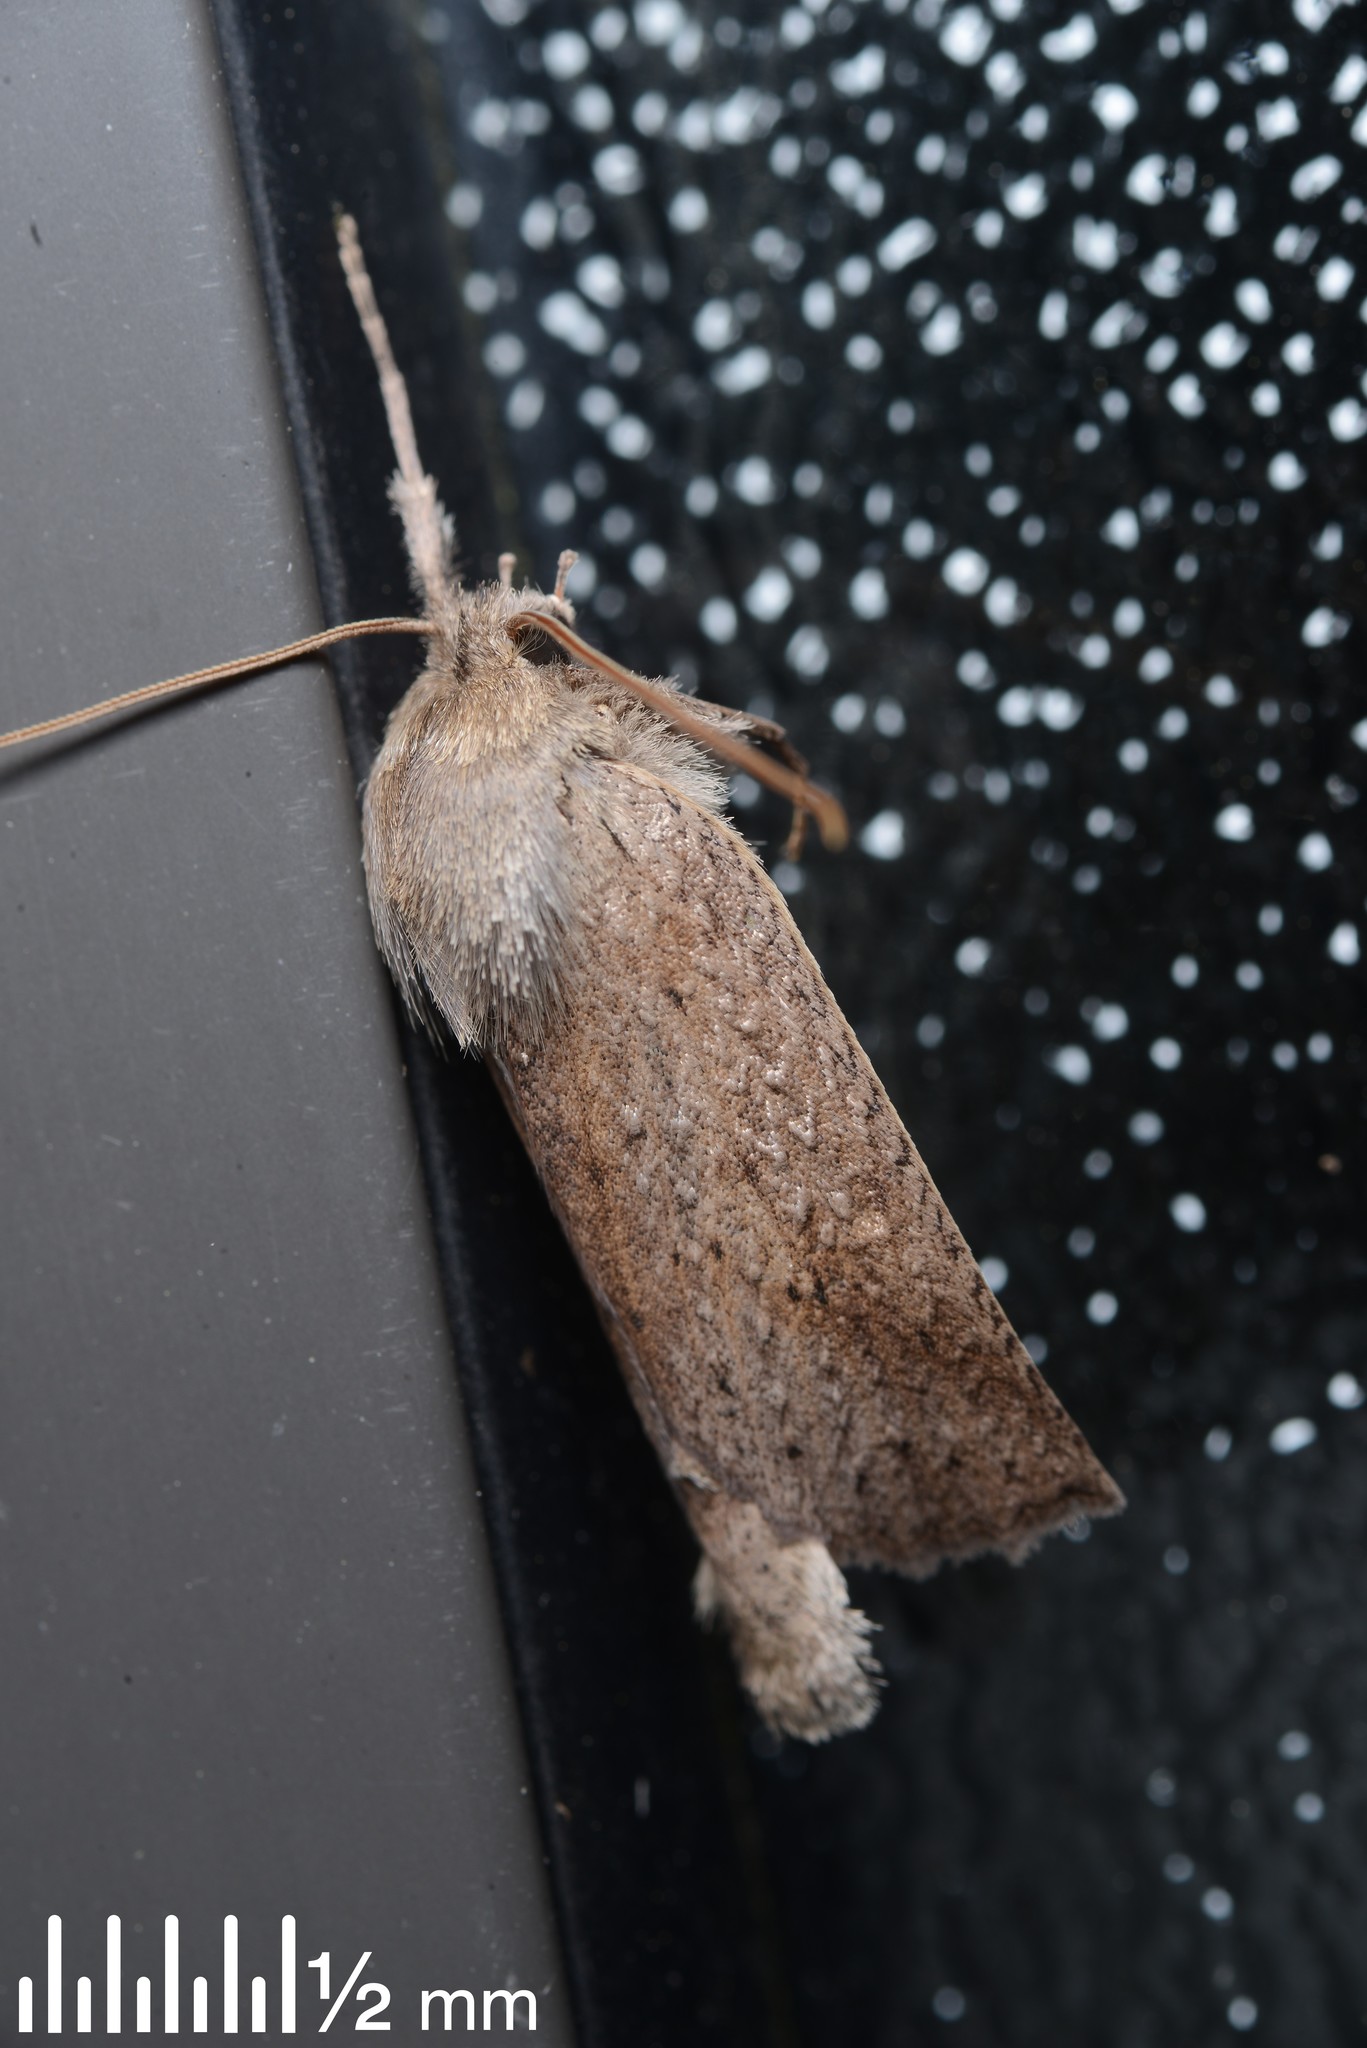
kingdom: Animalia
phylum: Arthropoda
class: Insecta
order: Lepidoptera
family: Geometridae
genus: Declana
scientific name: Declana leptomera
